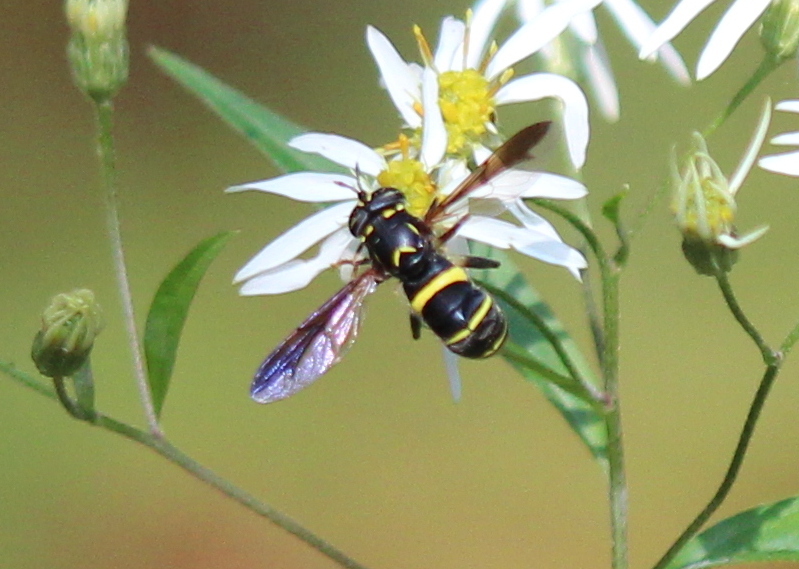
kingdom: Animalia
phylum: Arthropoda
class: Insecta
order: Diptera
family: Syrphidae
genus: Spilomyia
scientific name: Spilomyia sayi
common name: Four-lined hornet fly
